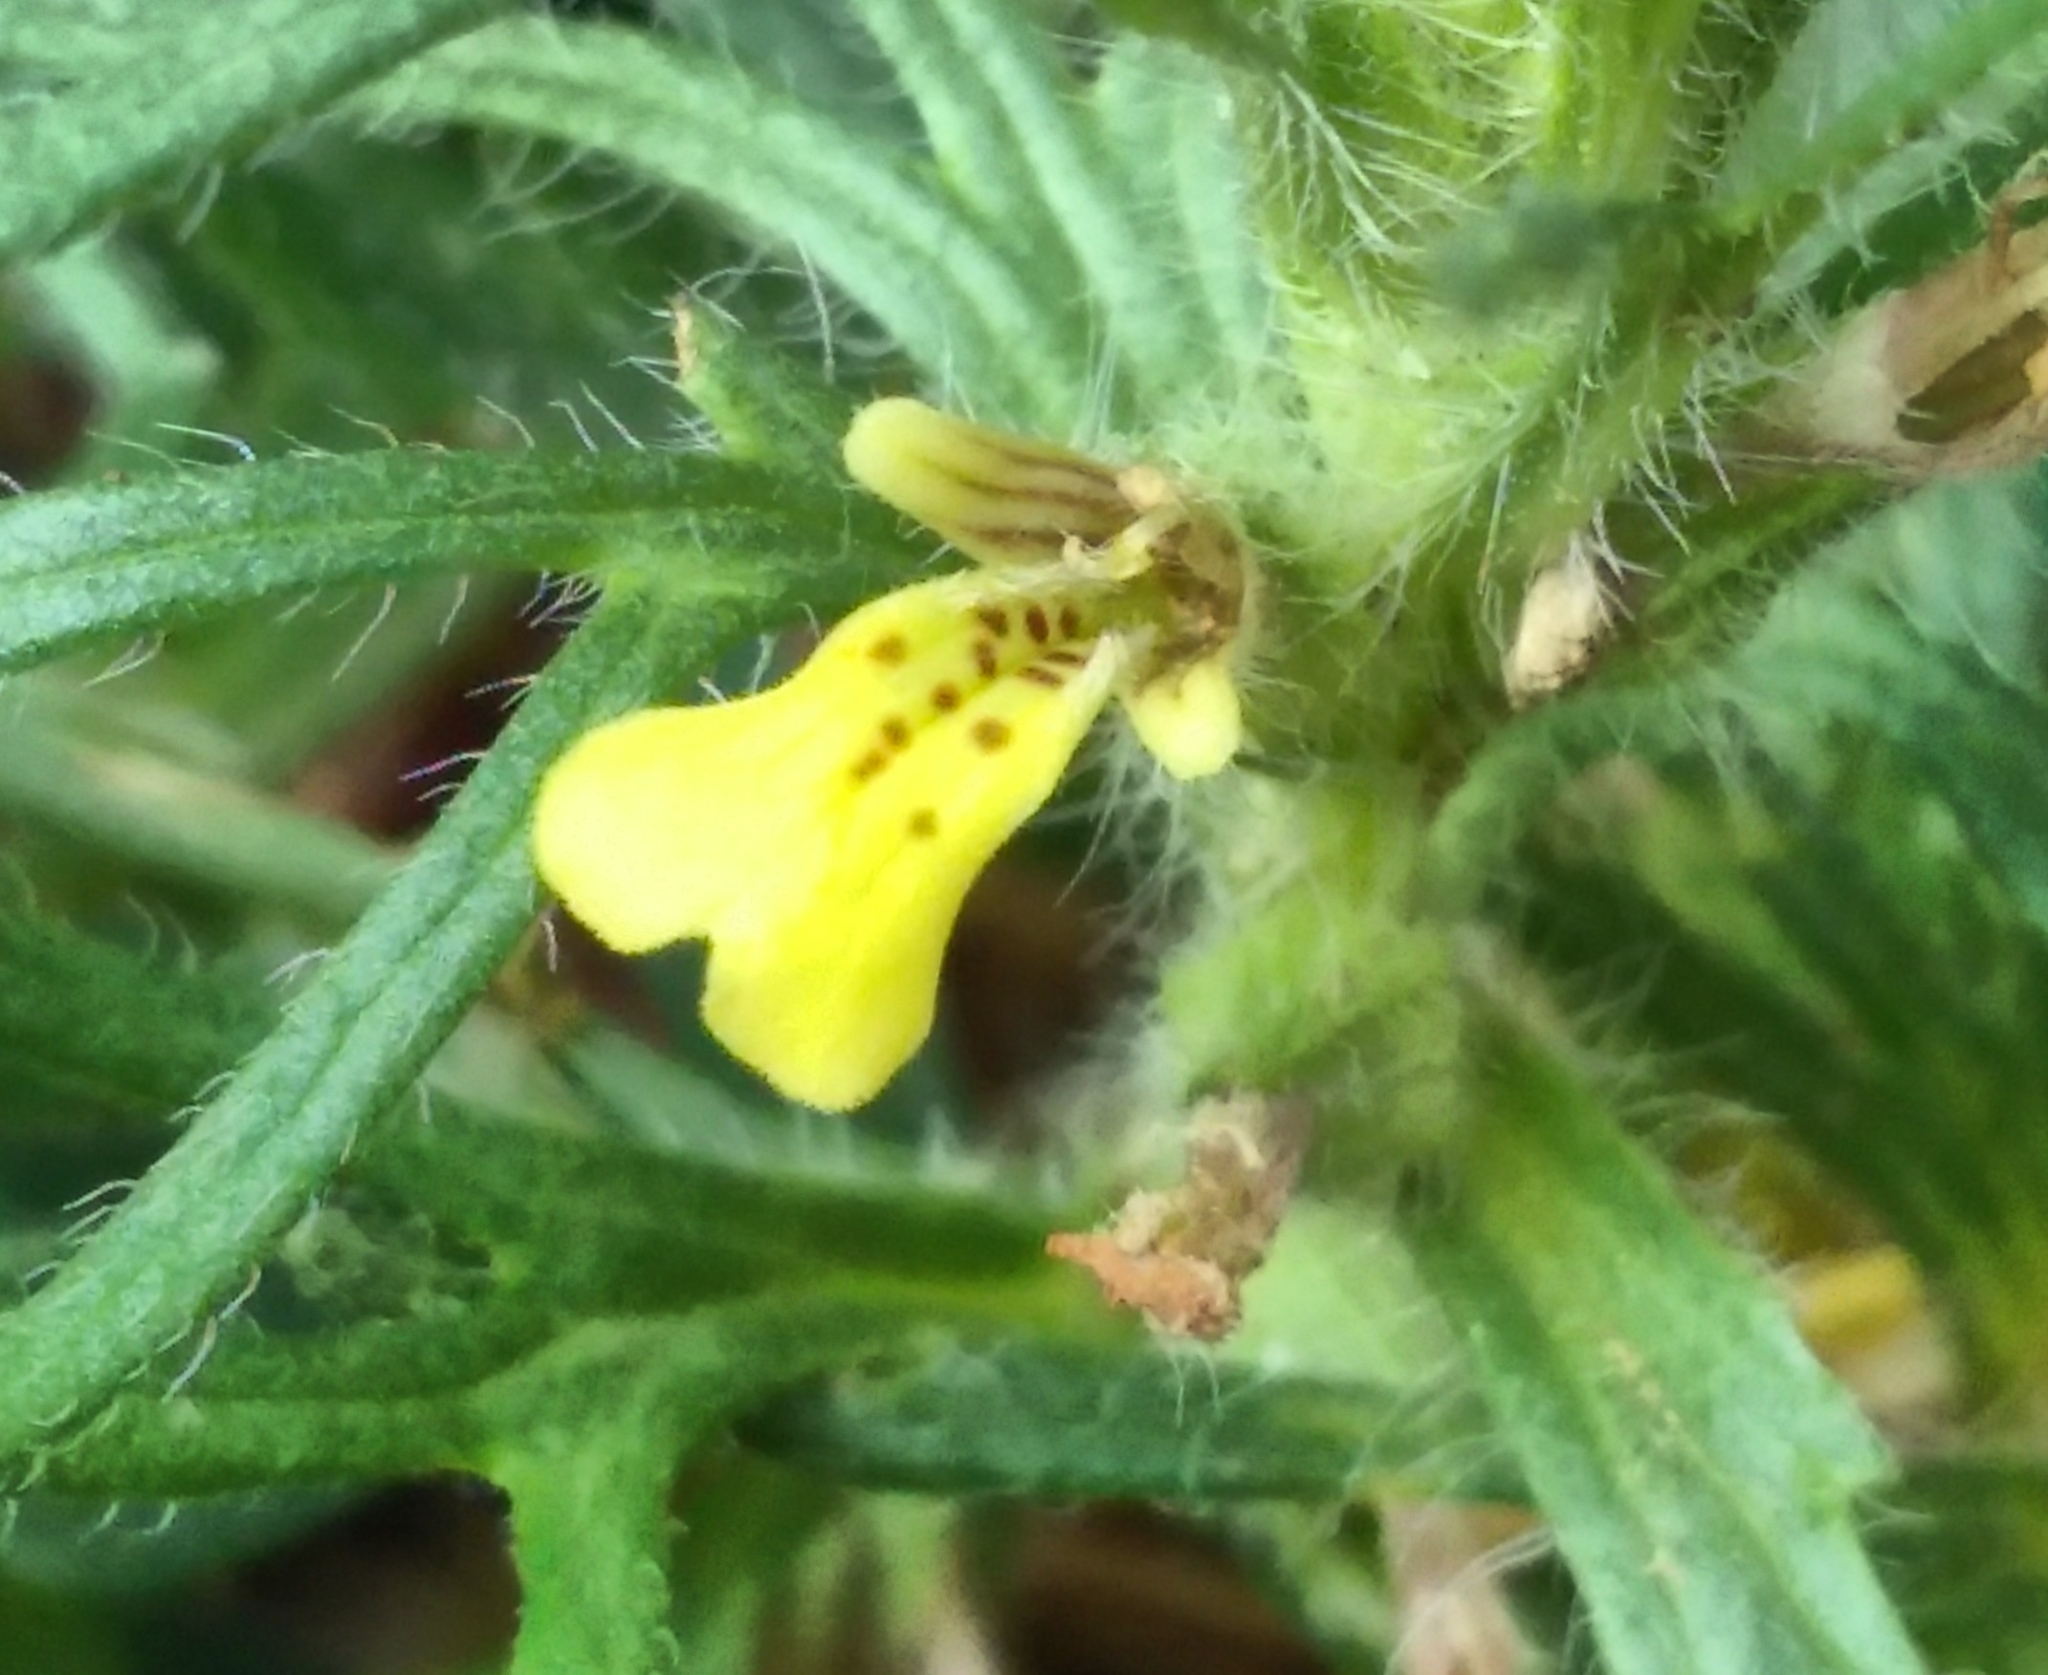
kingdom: Plantae
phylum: Tracheophyta
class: Magnoliopsida
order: Lamiales
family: Lamiaceae
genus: Ajuga
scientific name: Ajuga chamaepitys
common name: Ground-pine
